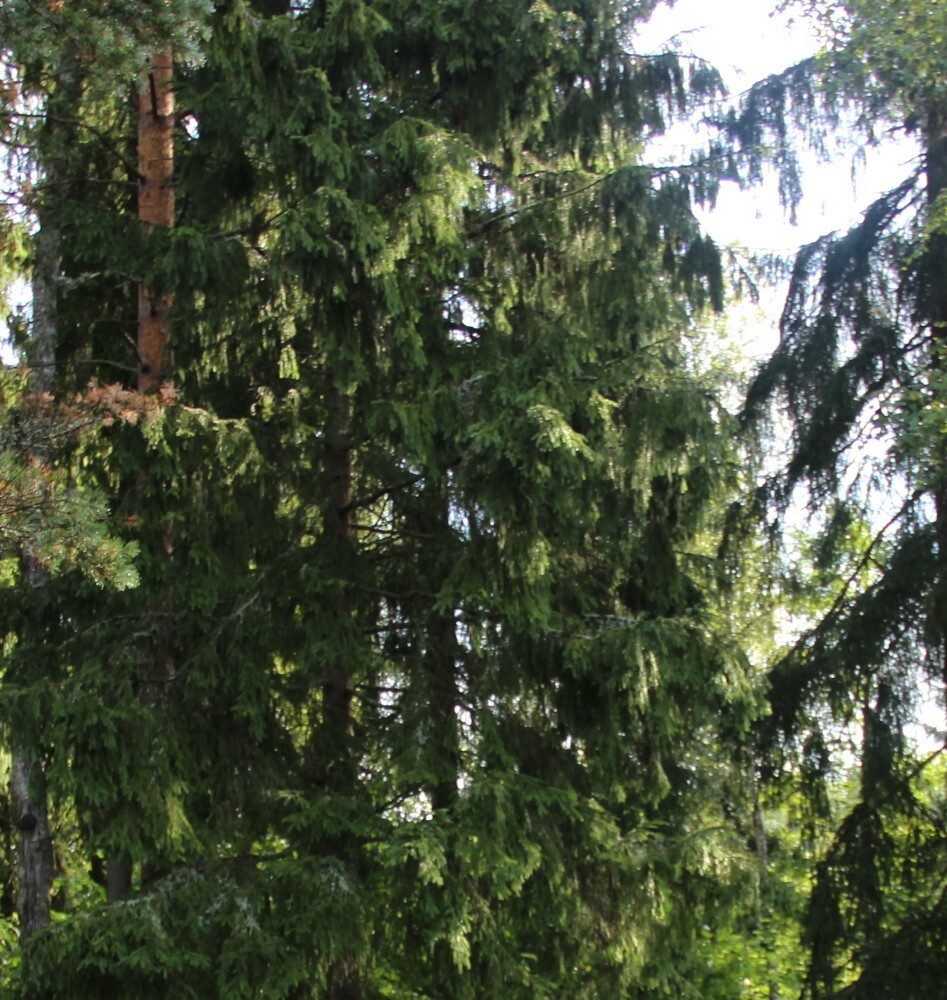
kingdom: Plantae
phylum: Tracheophyta
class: Pinopsida
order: Pinales
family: Pinaceae
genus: Picea
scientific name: Picea abies
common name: Norway spruce
